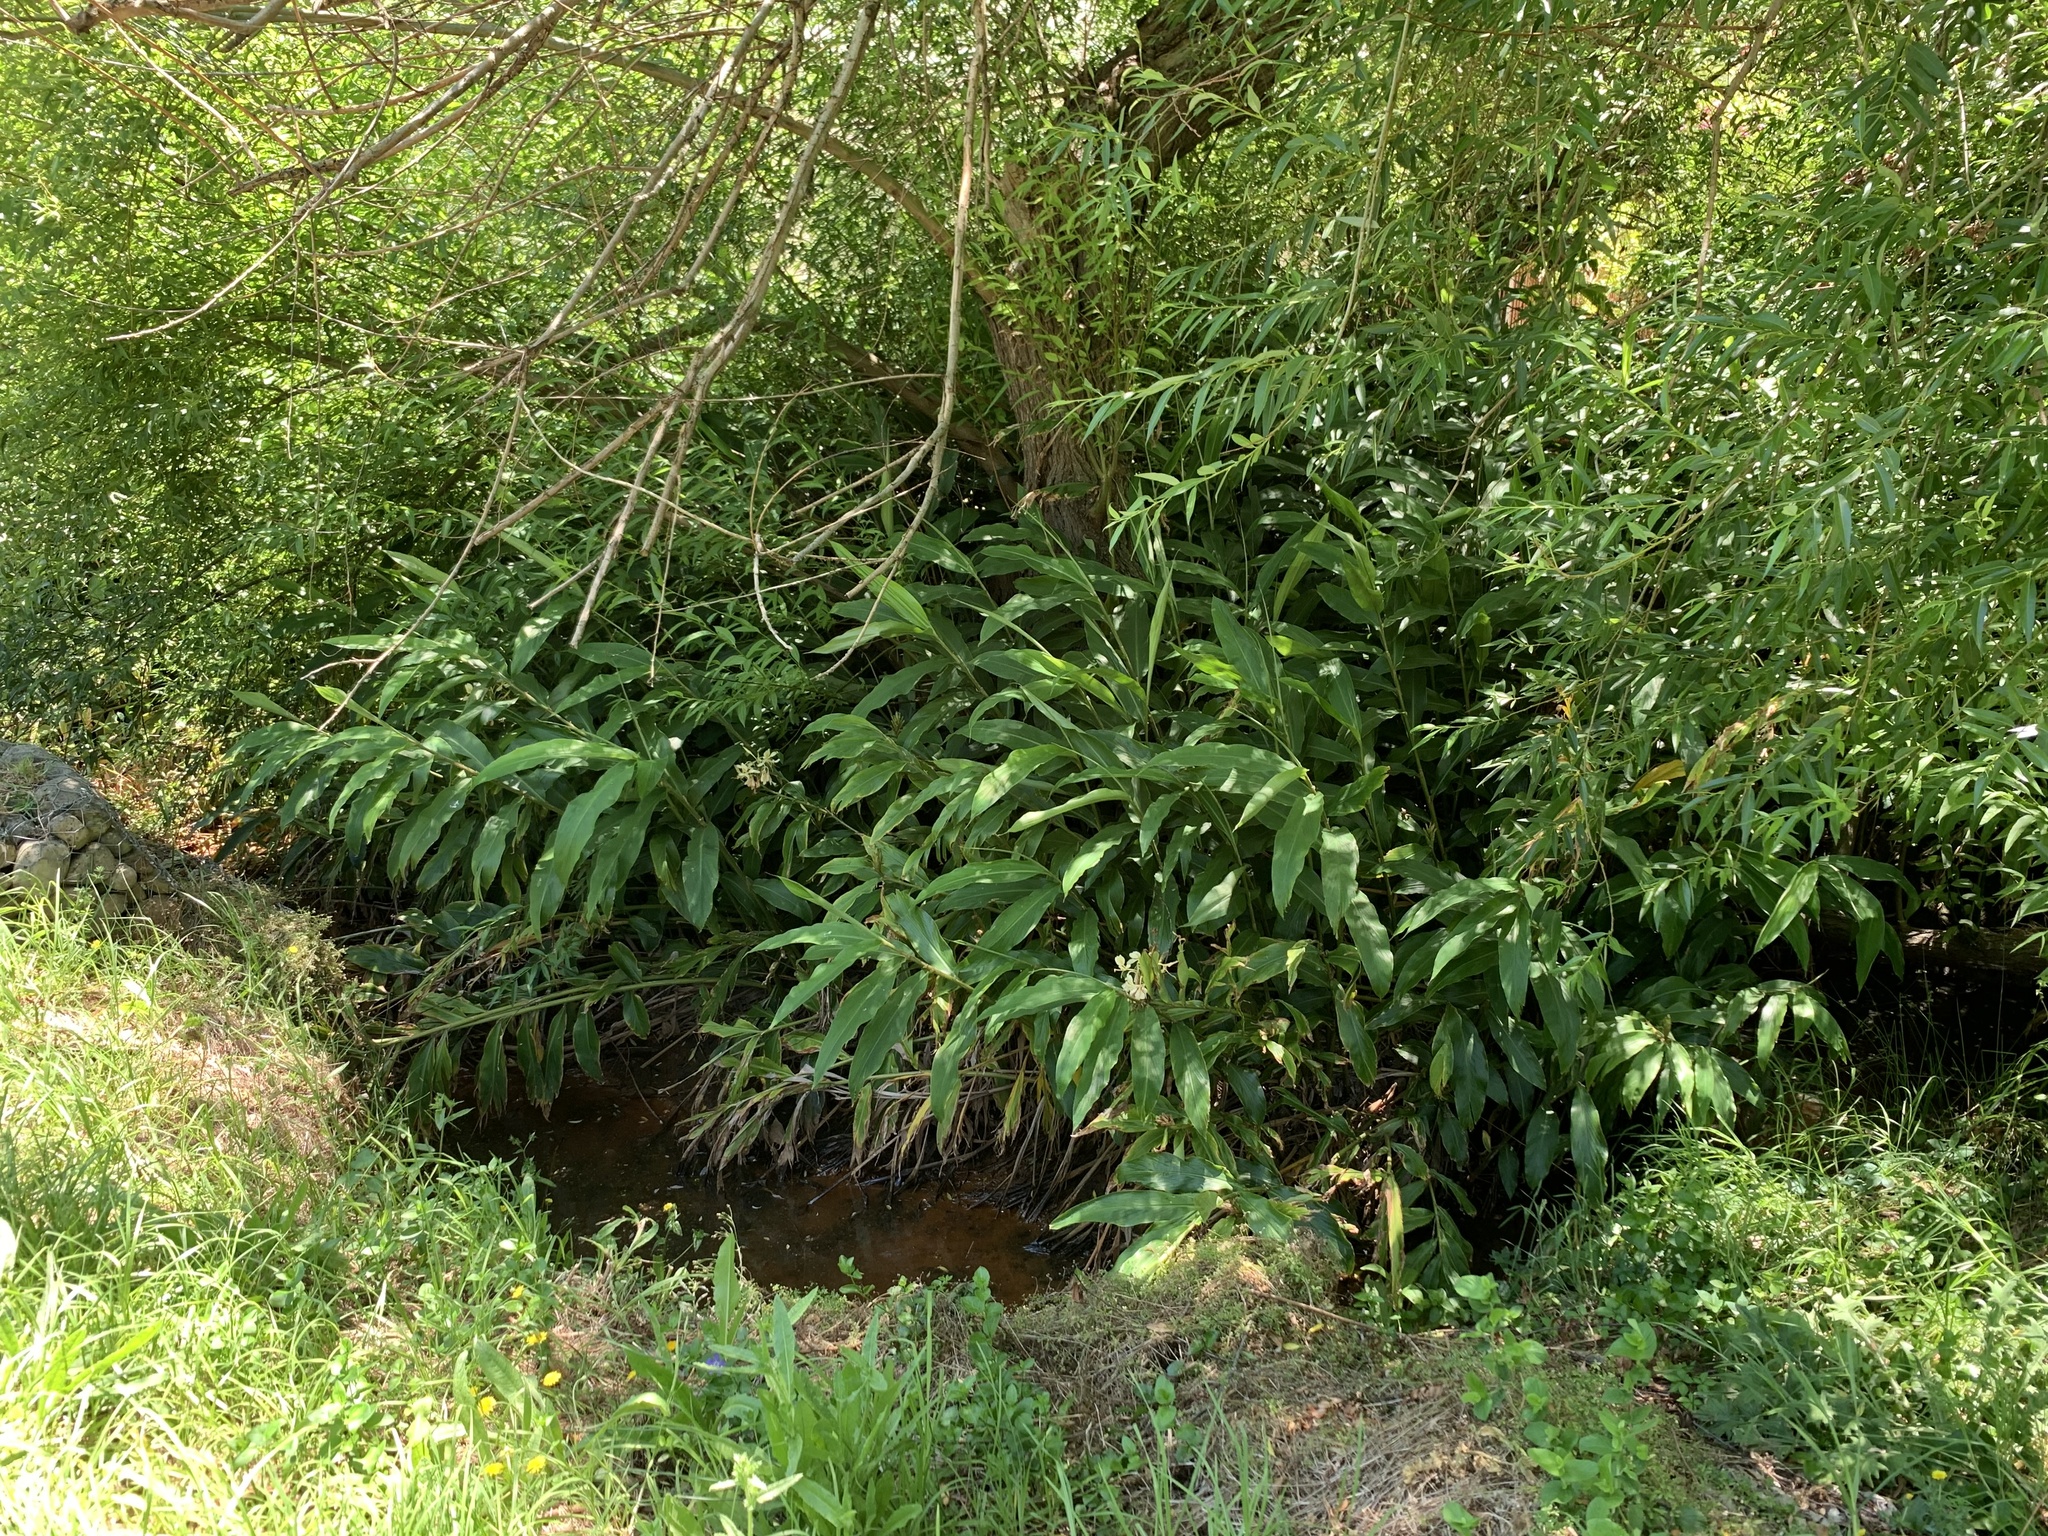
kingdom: Plantae
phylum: Tracheophyta
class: Liliopsida
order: Zingiberales
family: Zingiberaceae
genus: Hedychium
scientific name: Hedychium flavescens
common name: Yellow ginger
